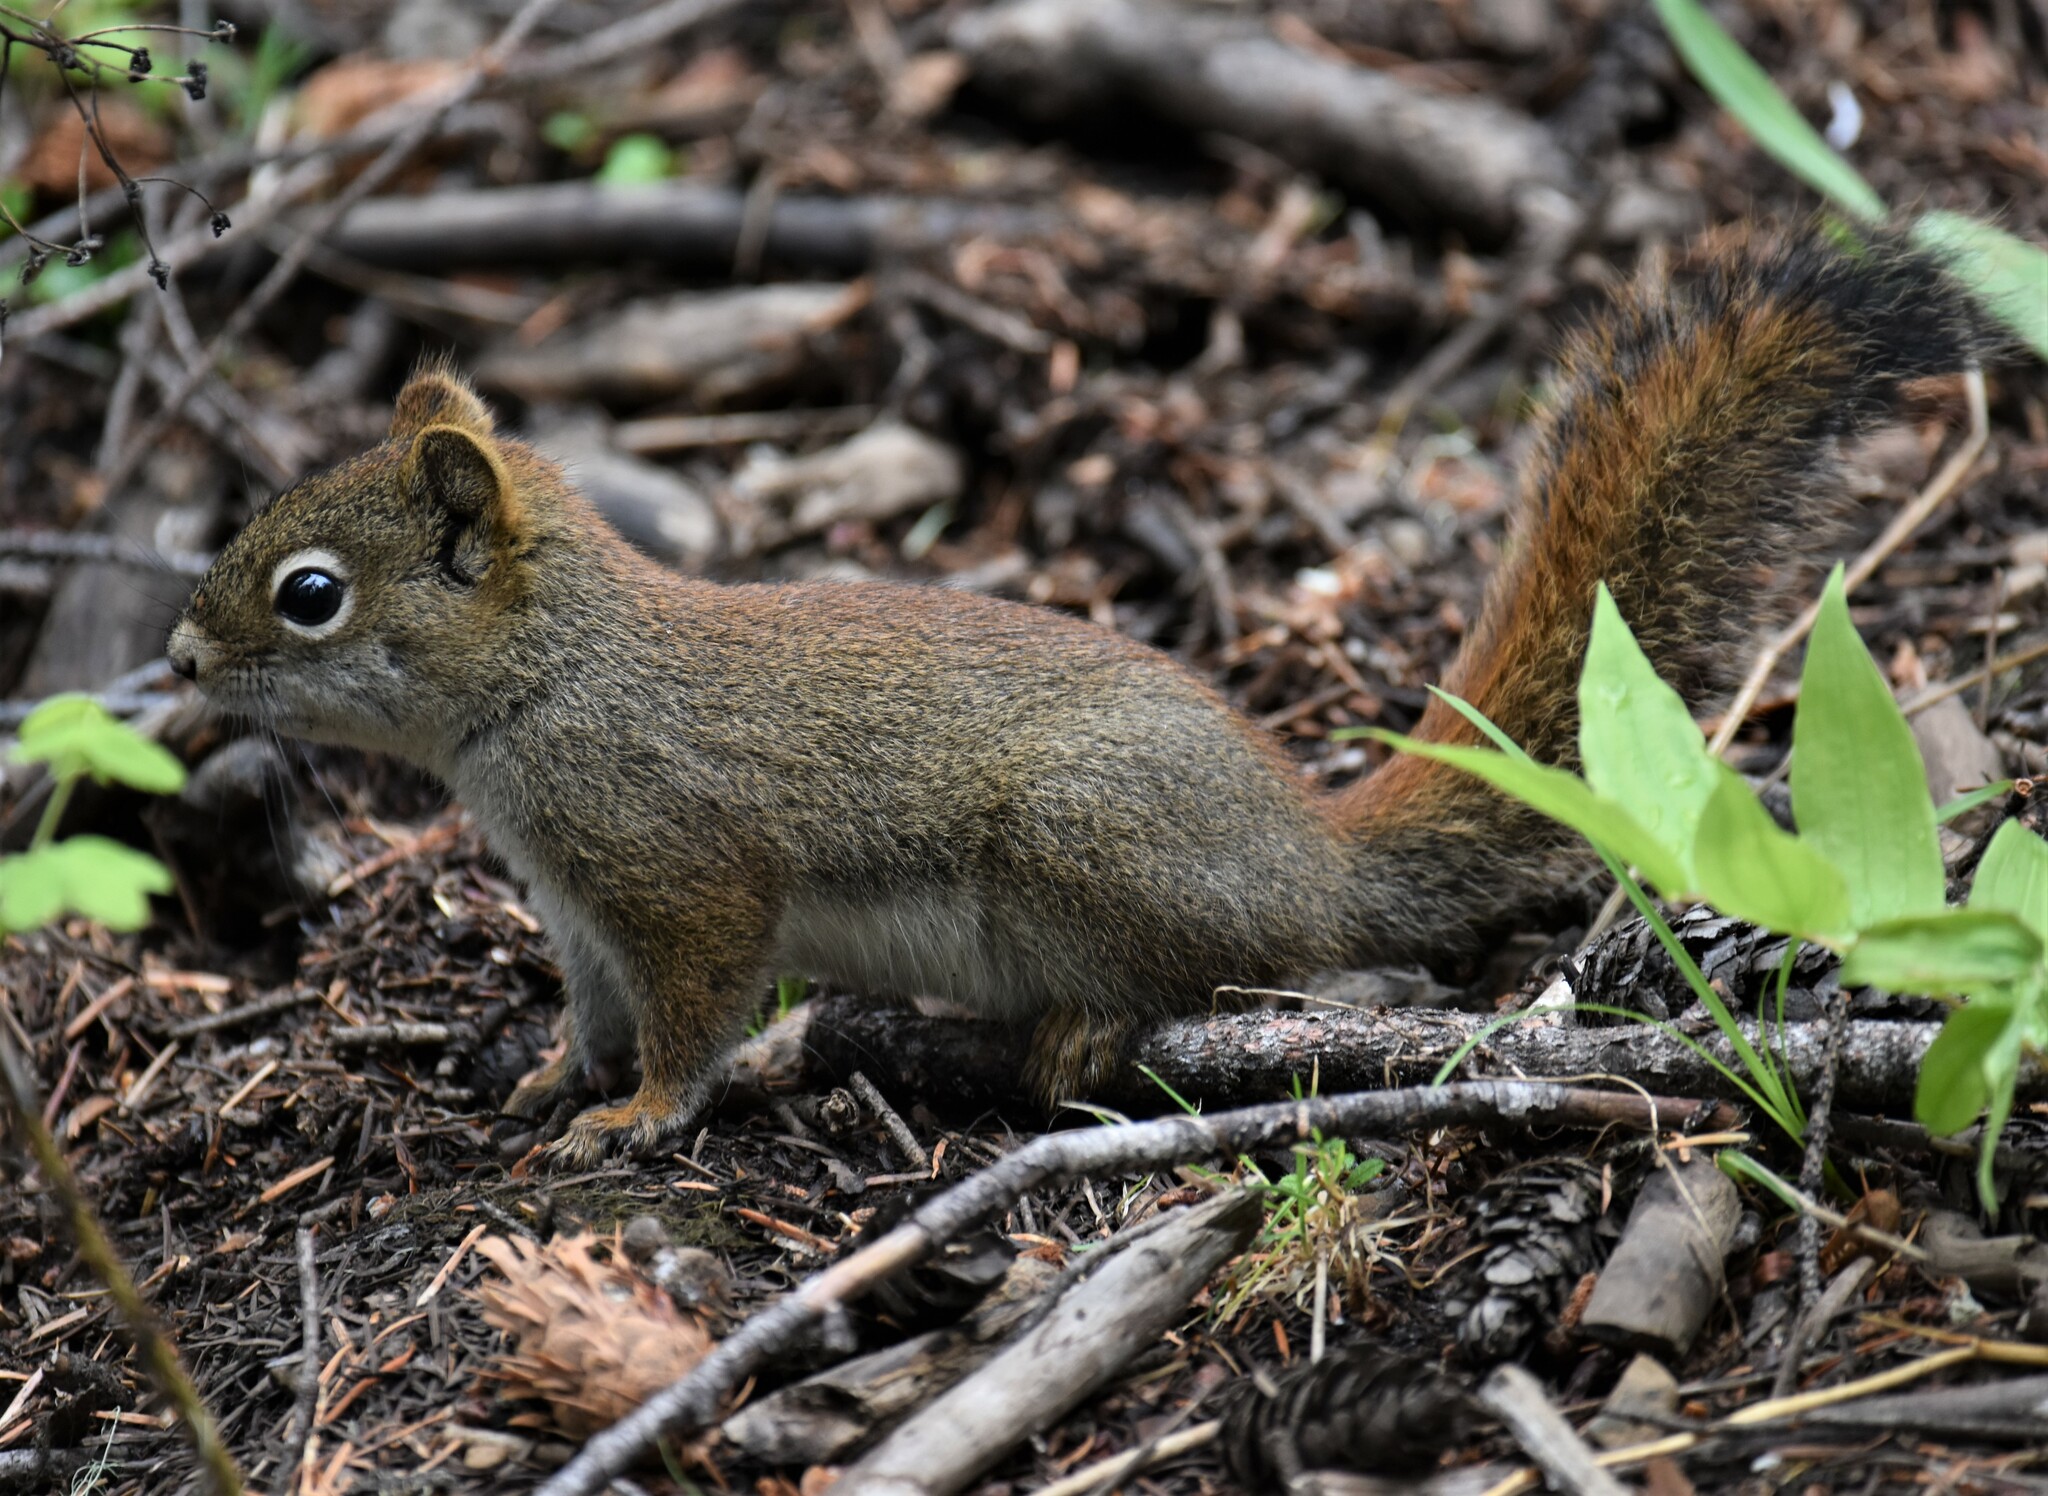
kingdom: Animalia
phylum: Chordata
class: Mammalia
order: Rodentia
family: Sciuridae
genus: Tamiasciurus
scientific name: Tamiasciurus hudsonicus
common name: Red squirrel
